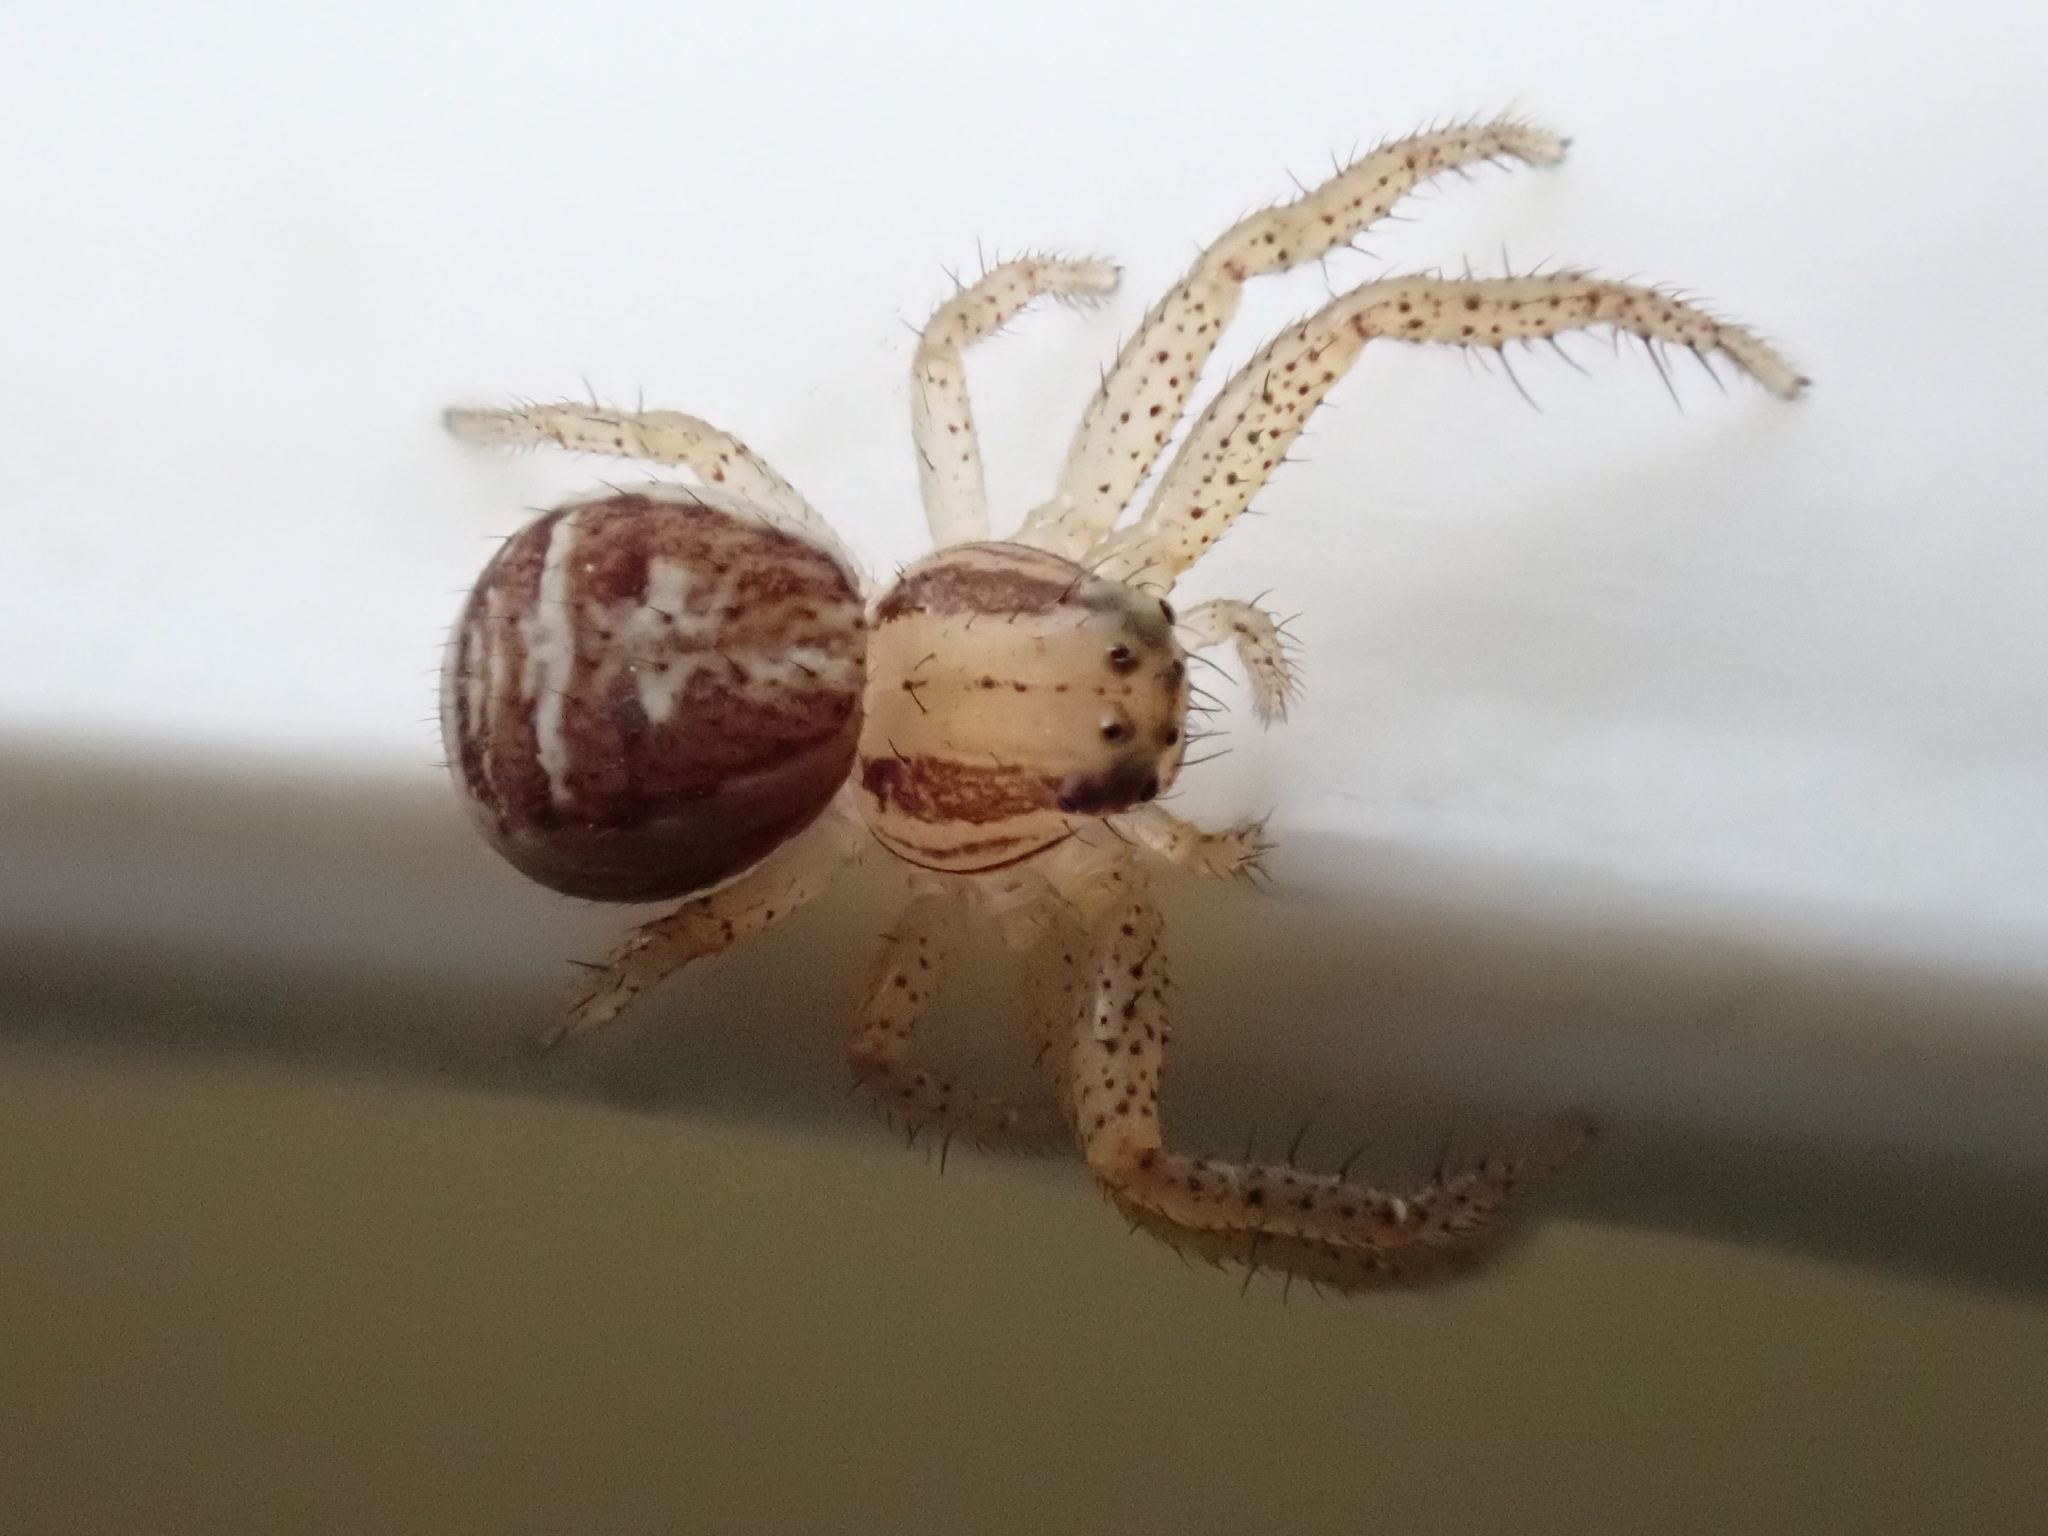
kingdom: Animalia
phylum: Arthropoda
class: Arachnida
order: Araneae
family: Thomisidae
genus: Xysticus
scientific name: Xysticus ulmi
